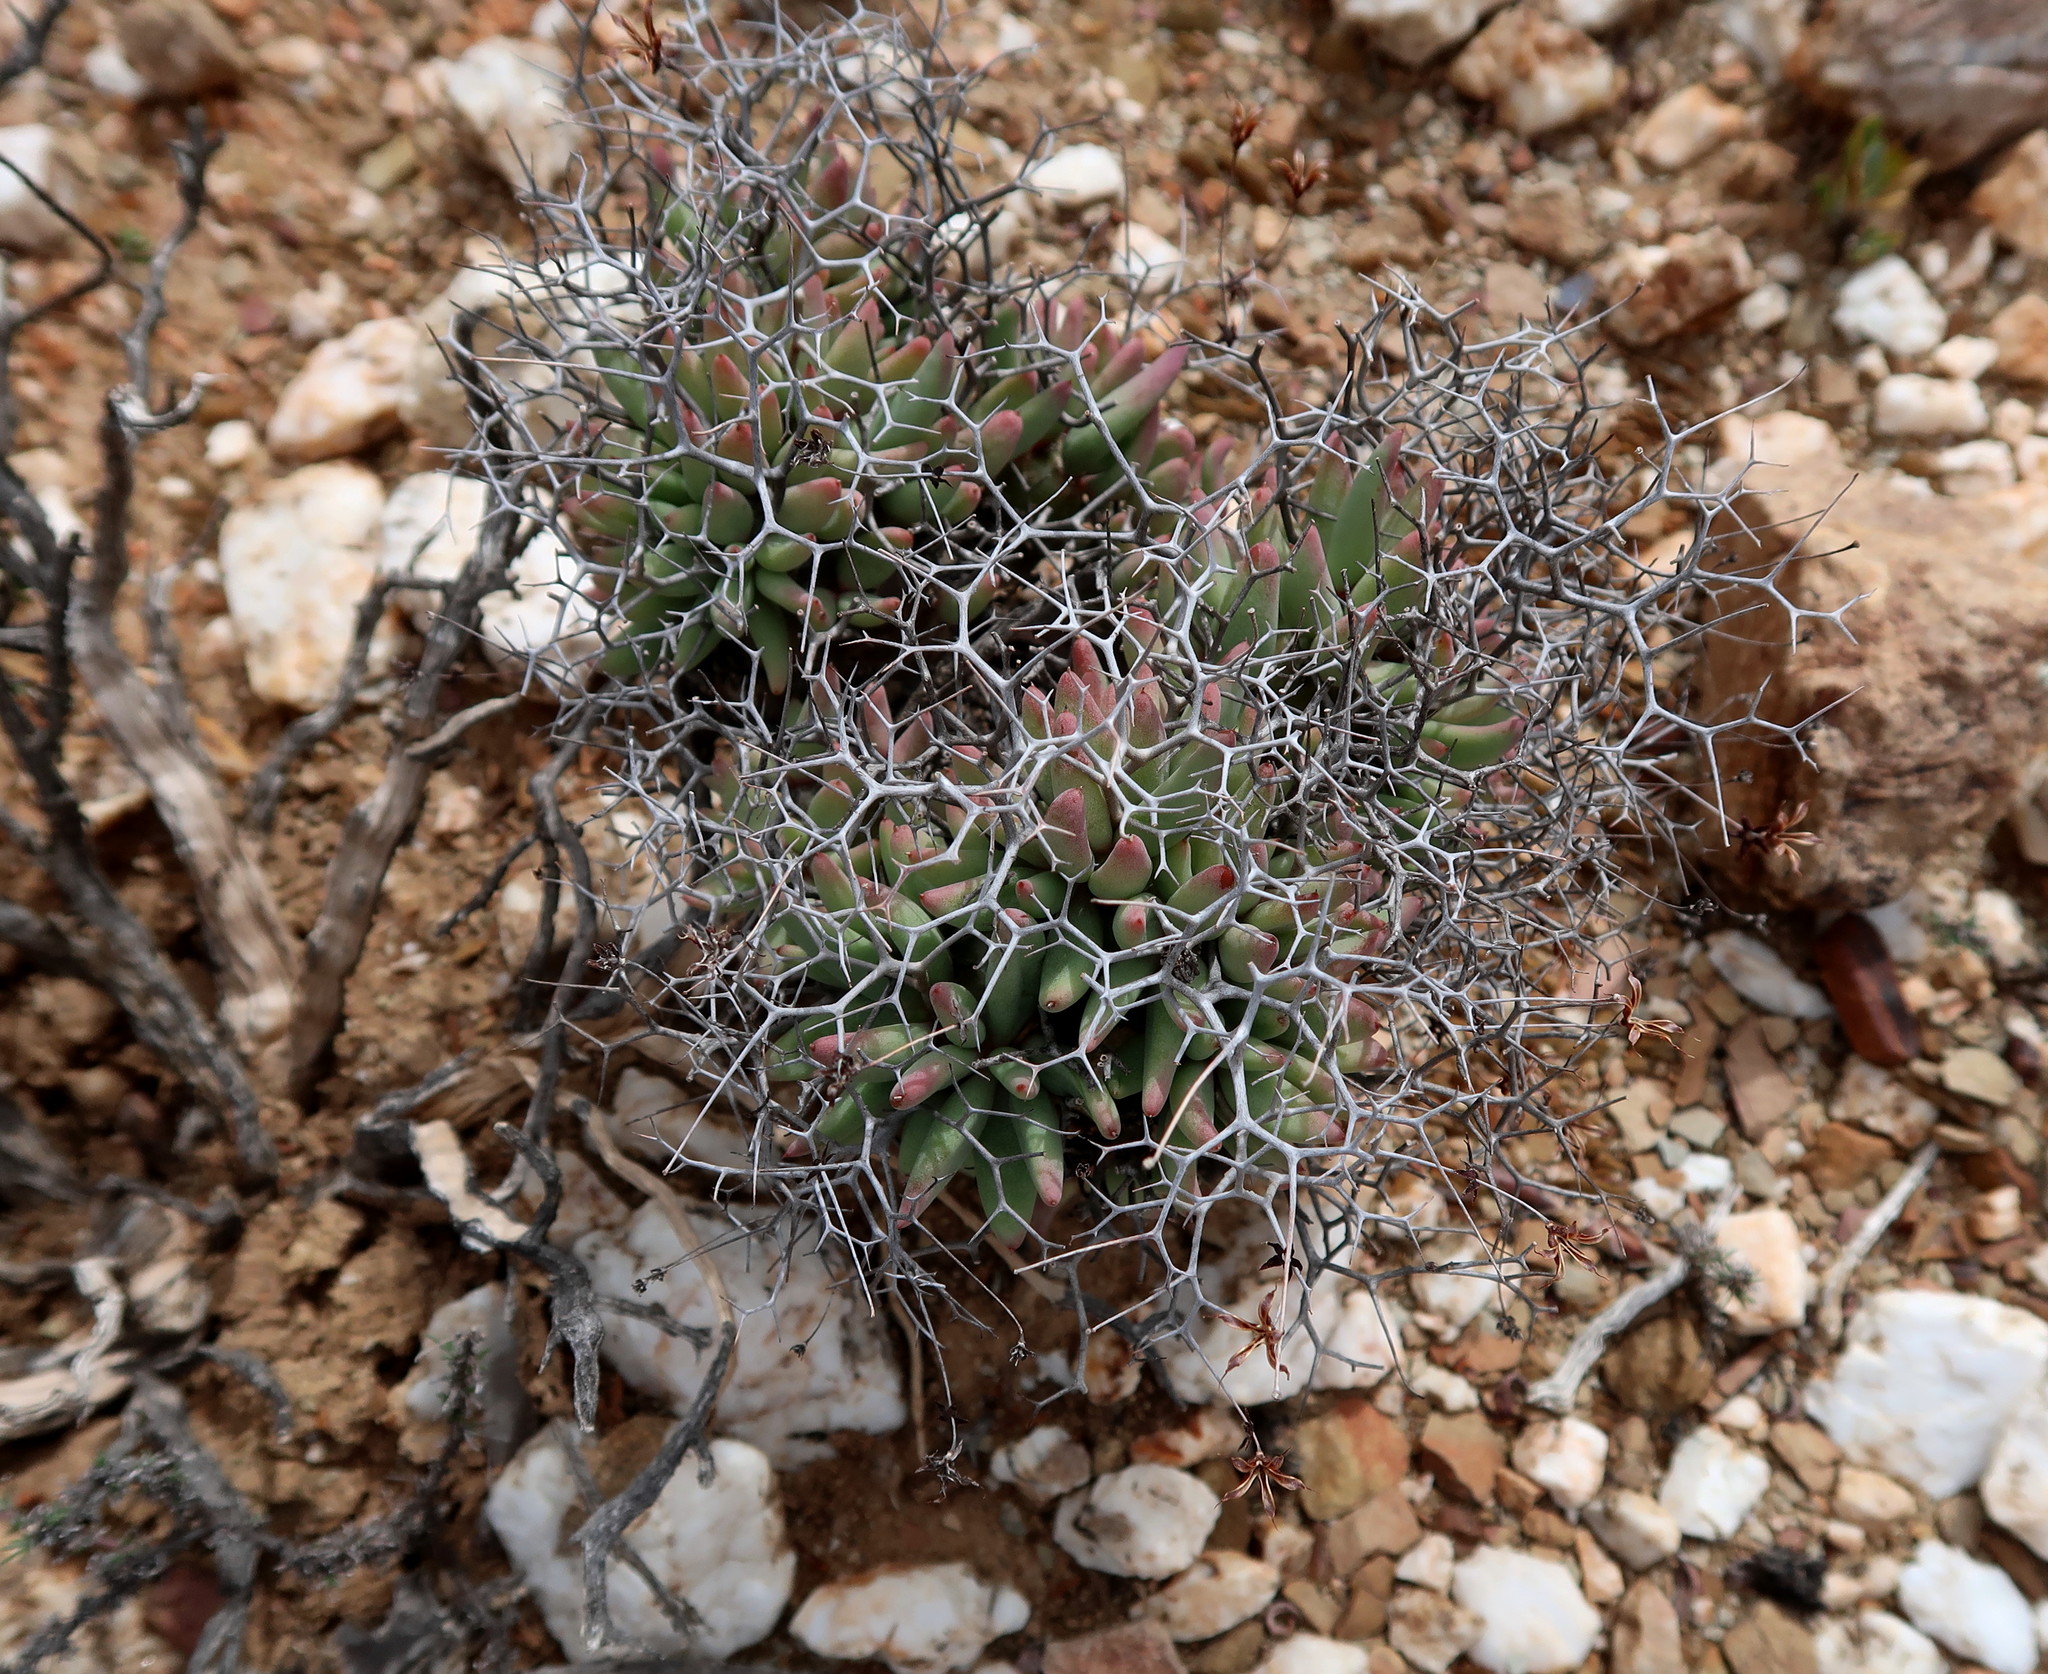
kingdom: Plantae
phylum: Tracheophyta
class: Magnoliopsida
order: Saxifragales
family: Crassulaceae
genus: Tylecodon
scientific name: Tylecodon reticulatus
